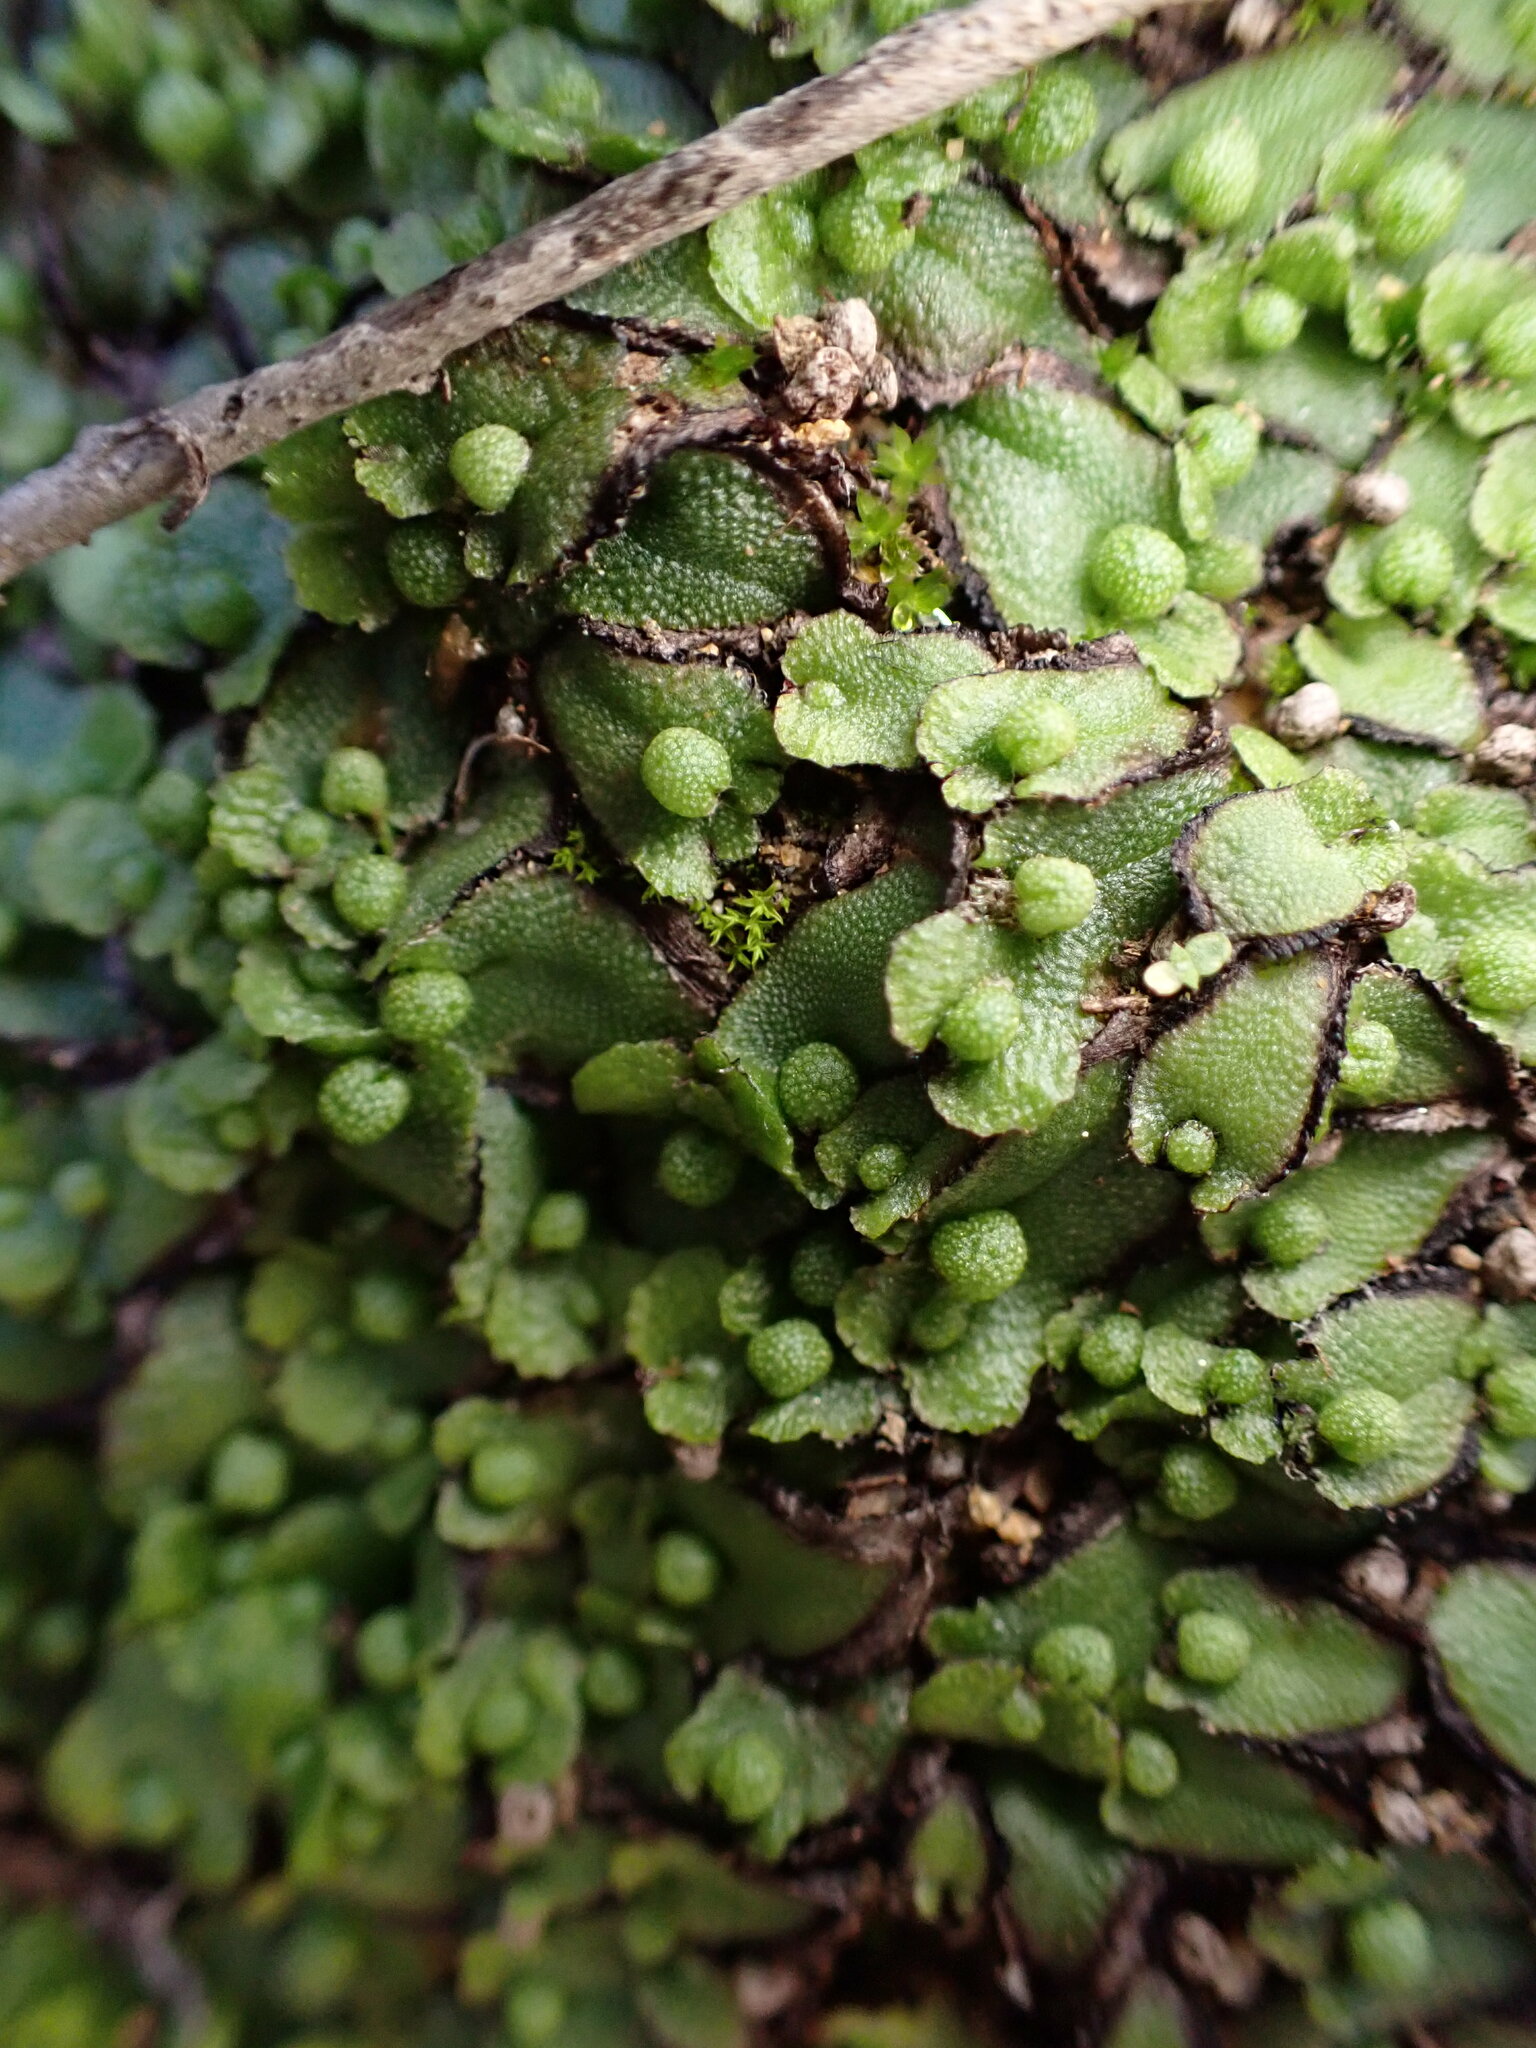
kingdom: Plantae
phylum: Marchantiophyta
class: Marchantiopsida
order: Marchantiales
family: Aytoniaceae
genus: Asterella
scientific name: Asterella californica
